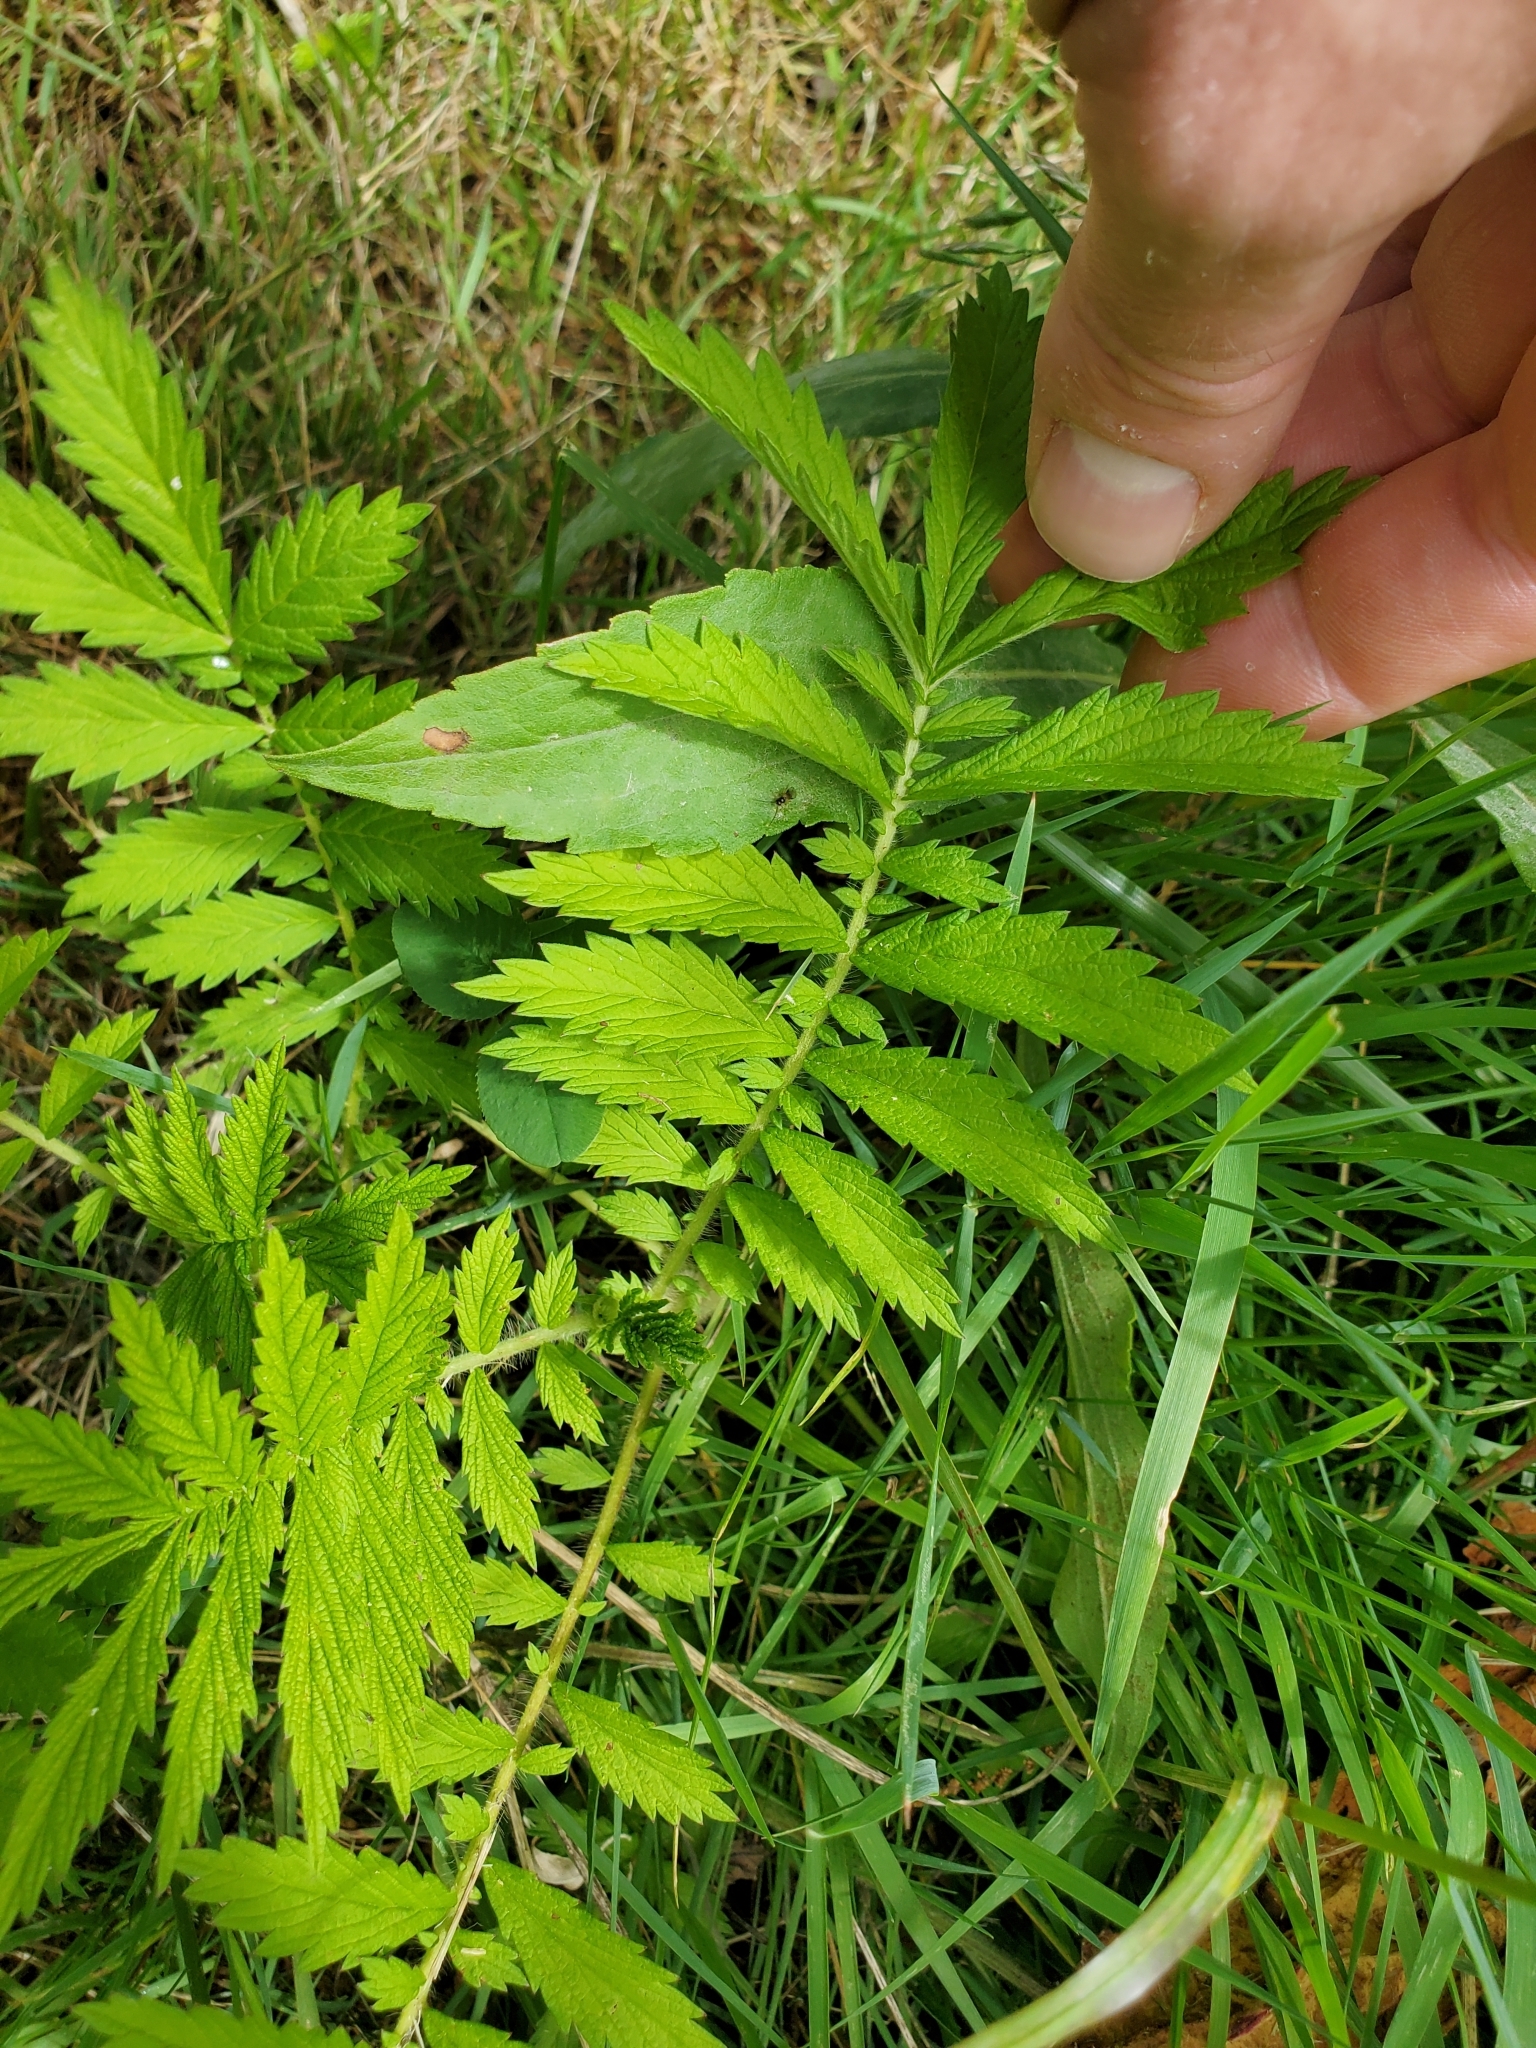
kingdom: Plantae
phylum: Tracheophyta
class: Magnoliopsida
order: Rosales
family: Rosaceae
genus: Agrimonia
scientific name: Agrimonia parviflora
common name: Harvest-lice
